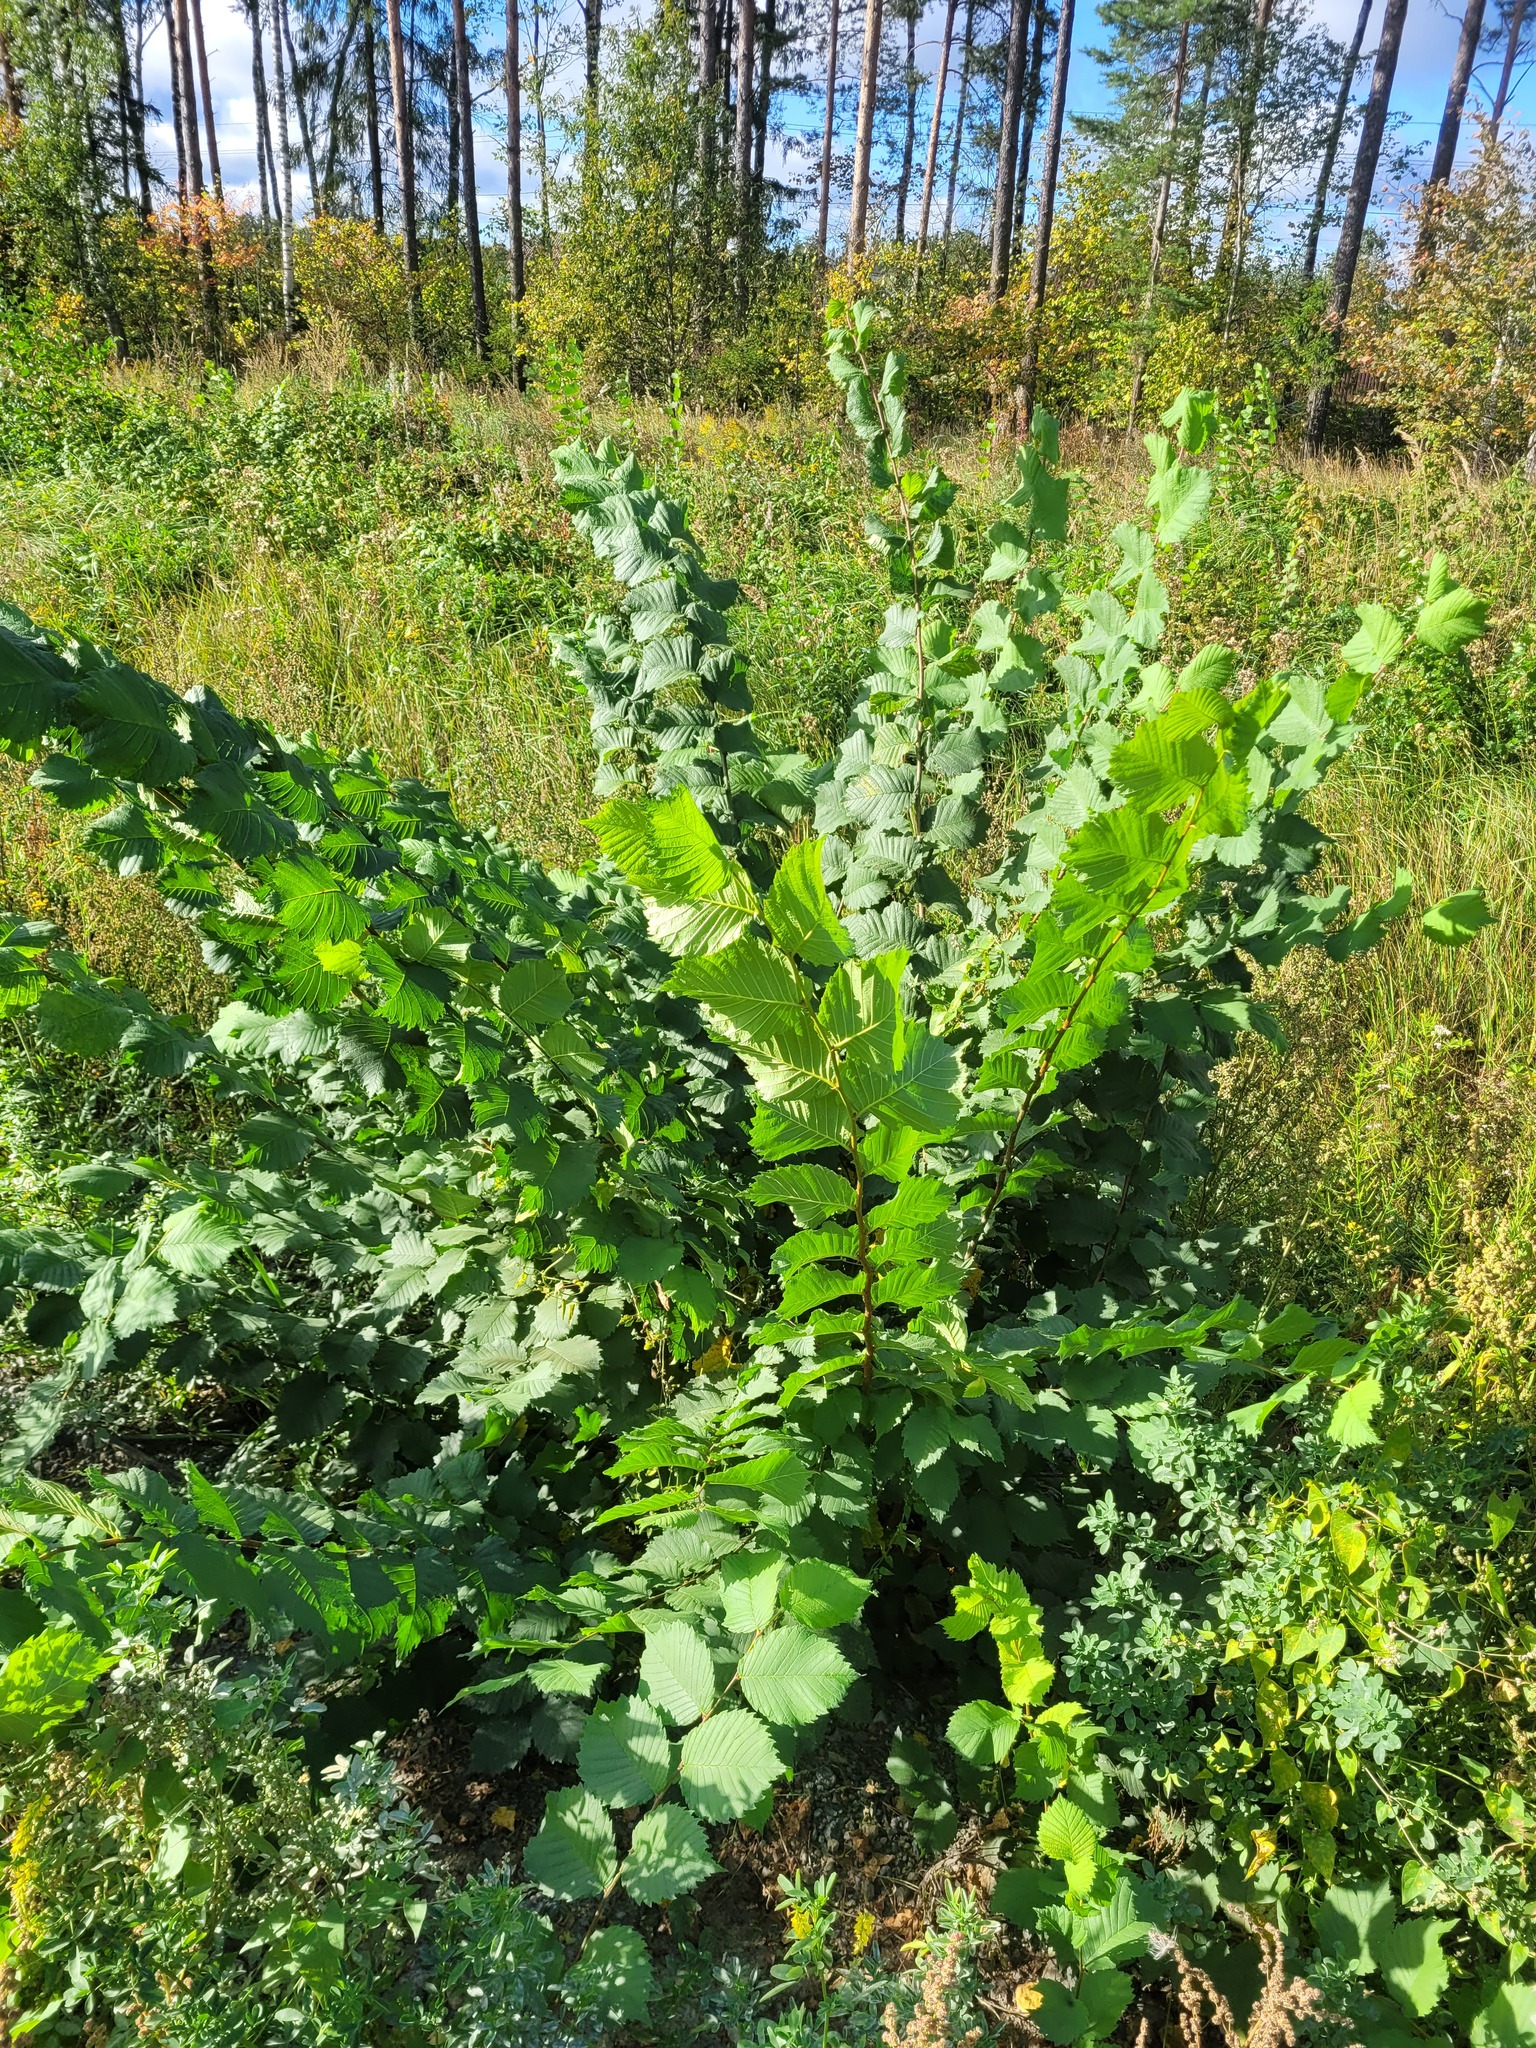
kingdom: Plantae
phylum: Tracheophyta
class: Magnoliopsida
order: Rosales
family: Ulmaceae
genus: Ulmus
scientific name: Ulmus laevis
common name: European white-elm
